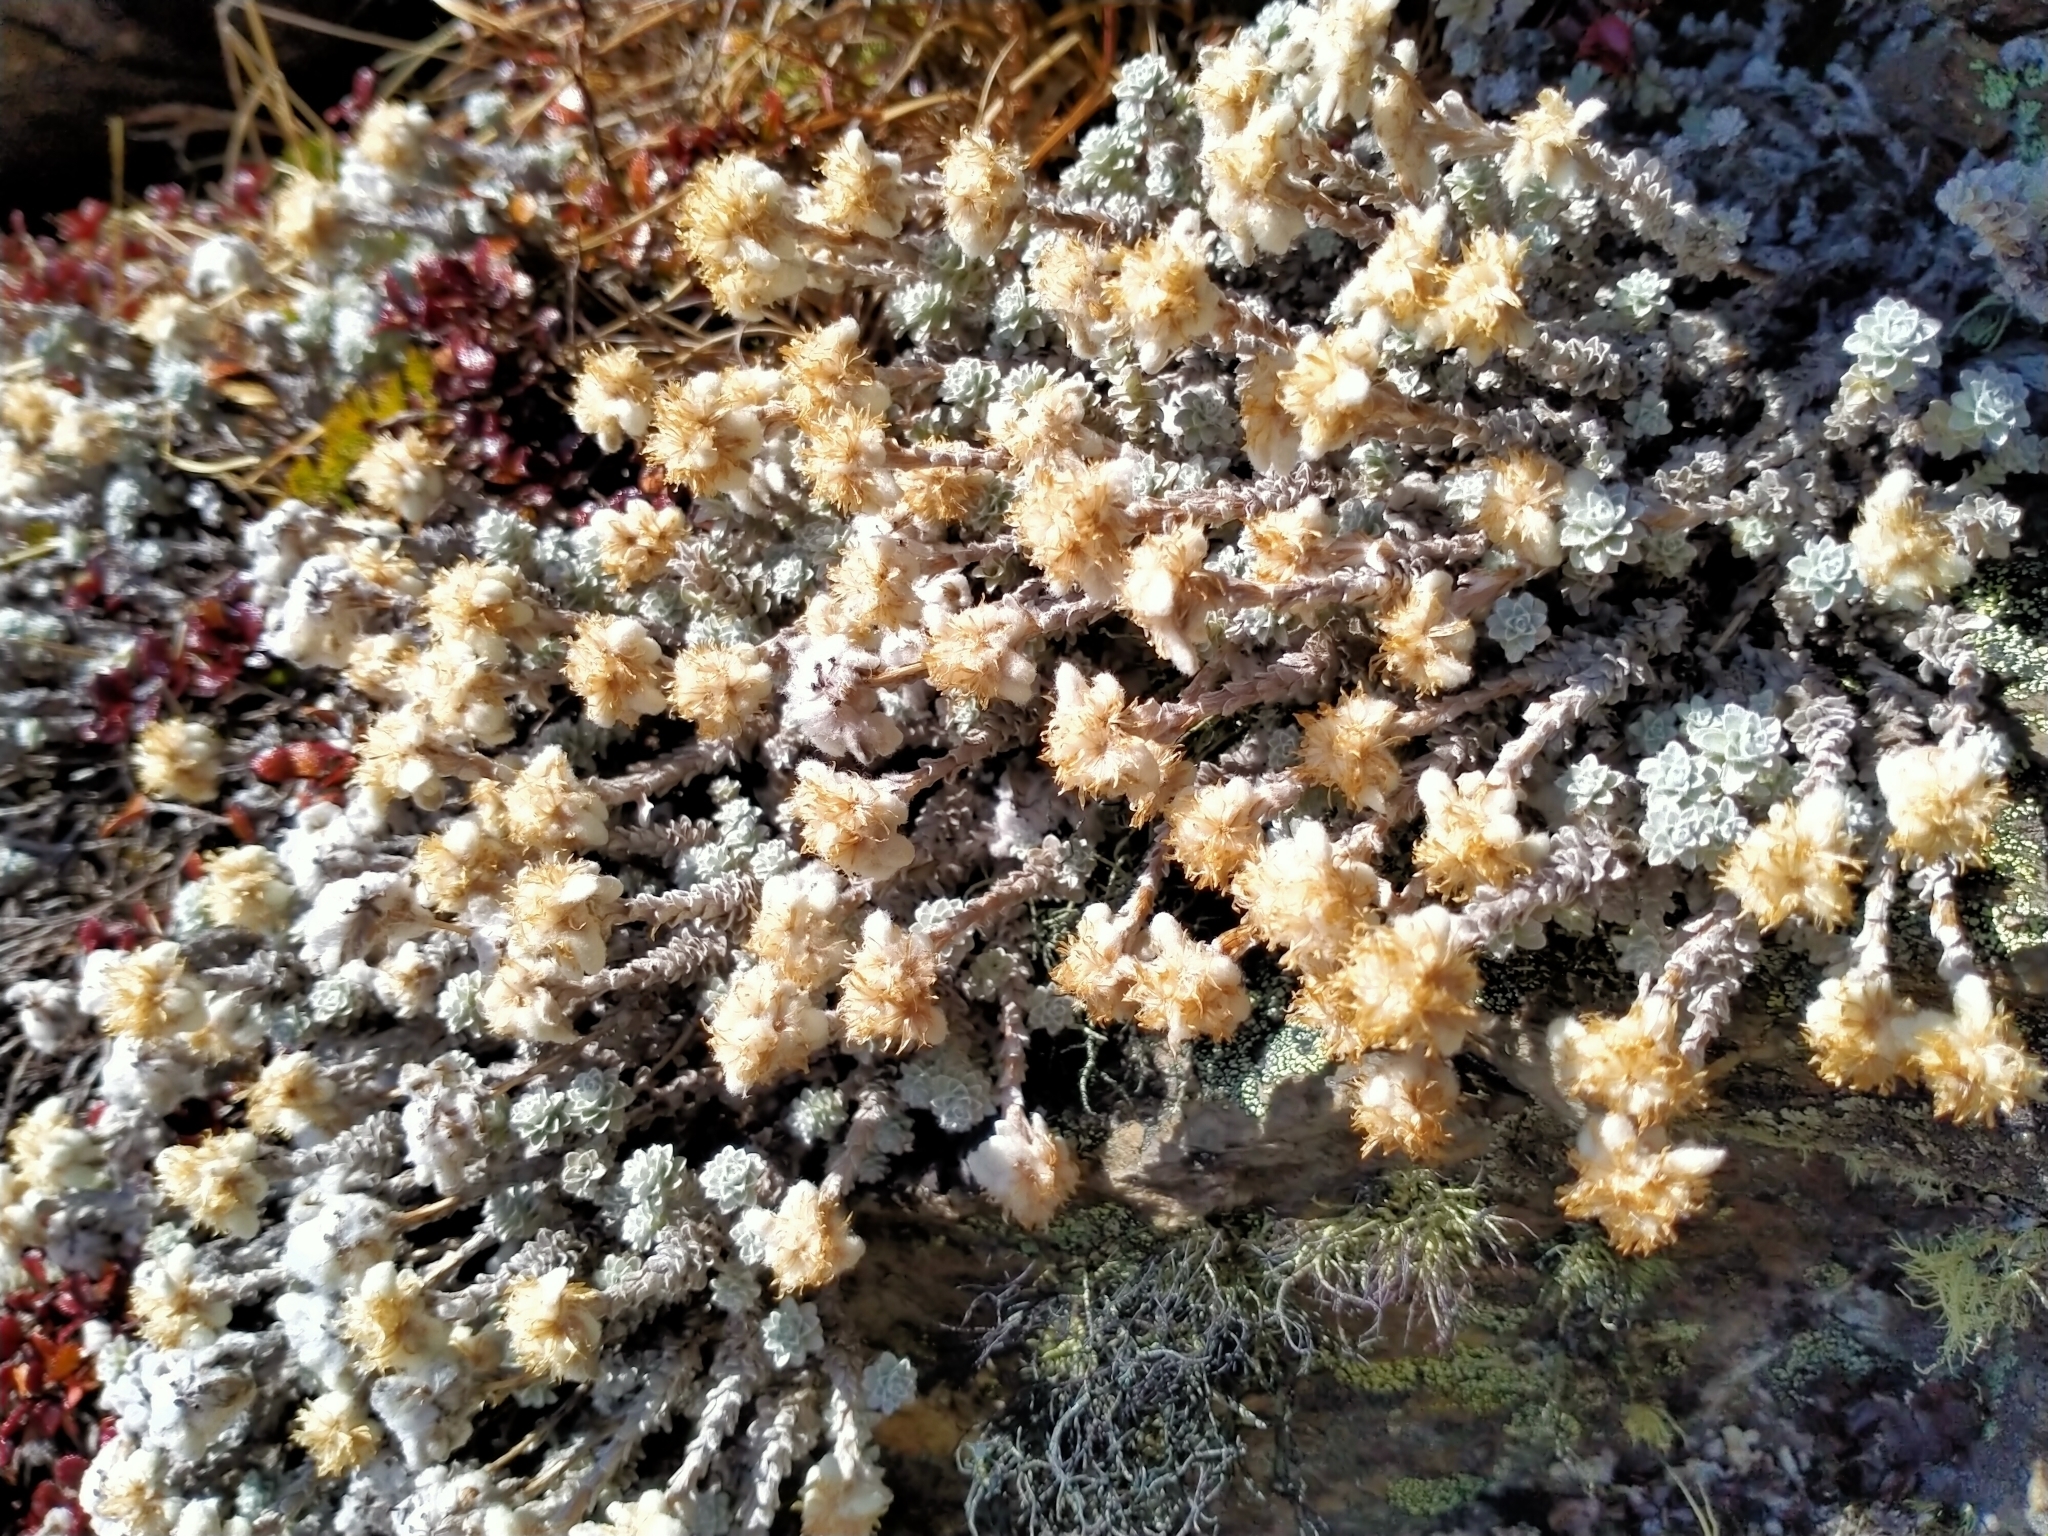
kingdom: Plantae
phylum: Tracheophyta
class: Magnoliopsida
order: Asterales
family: Asteraceae
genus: Leucogenes
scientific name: Leucogenes grandiceps
